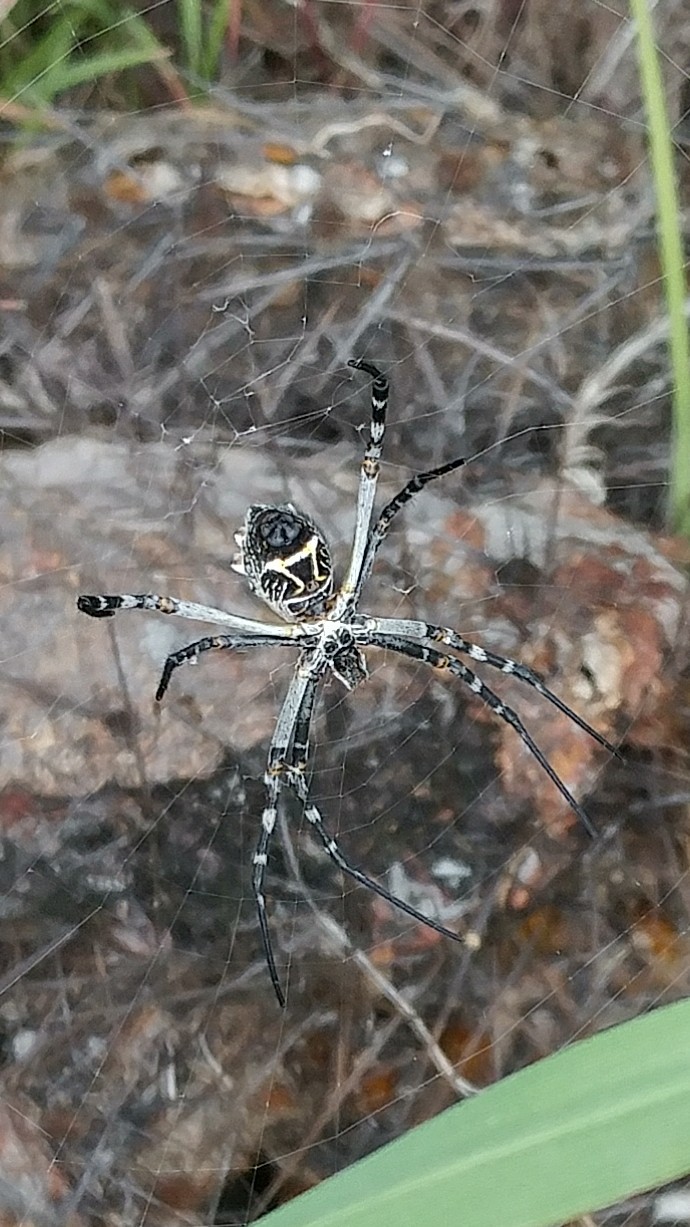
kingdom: Animalia
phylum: Arthropoda
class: Arachnida
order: Araneae
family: Araneidae
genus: Argiope
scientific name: Argiope argentata
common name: Orb weavers
